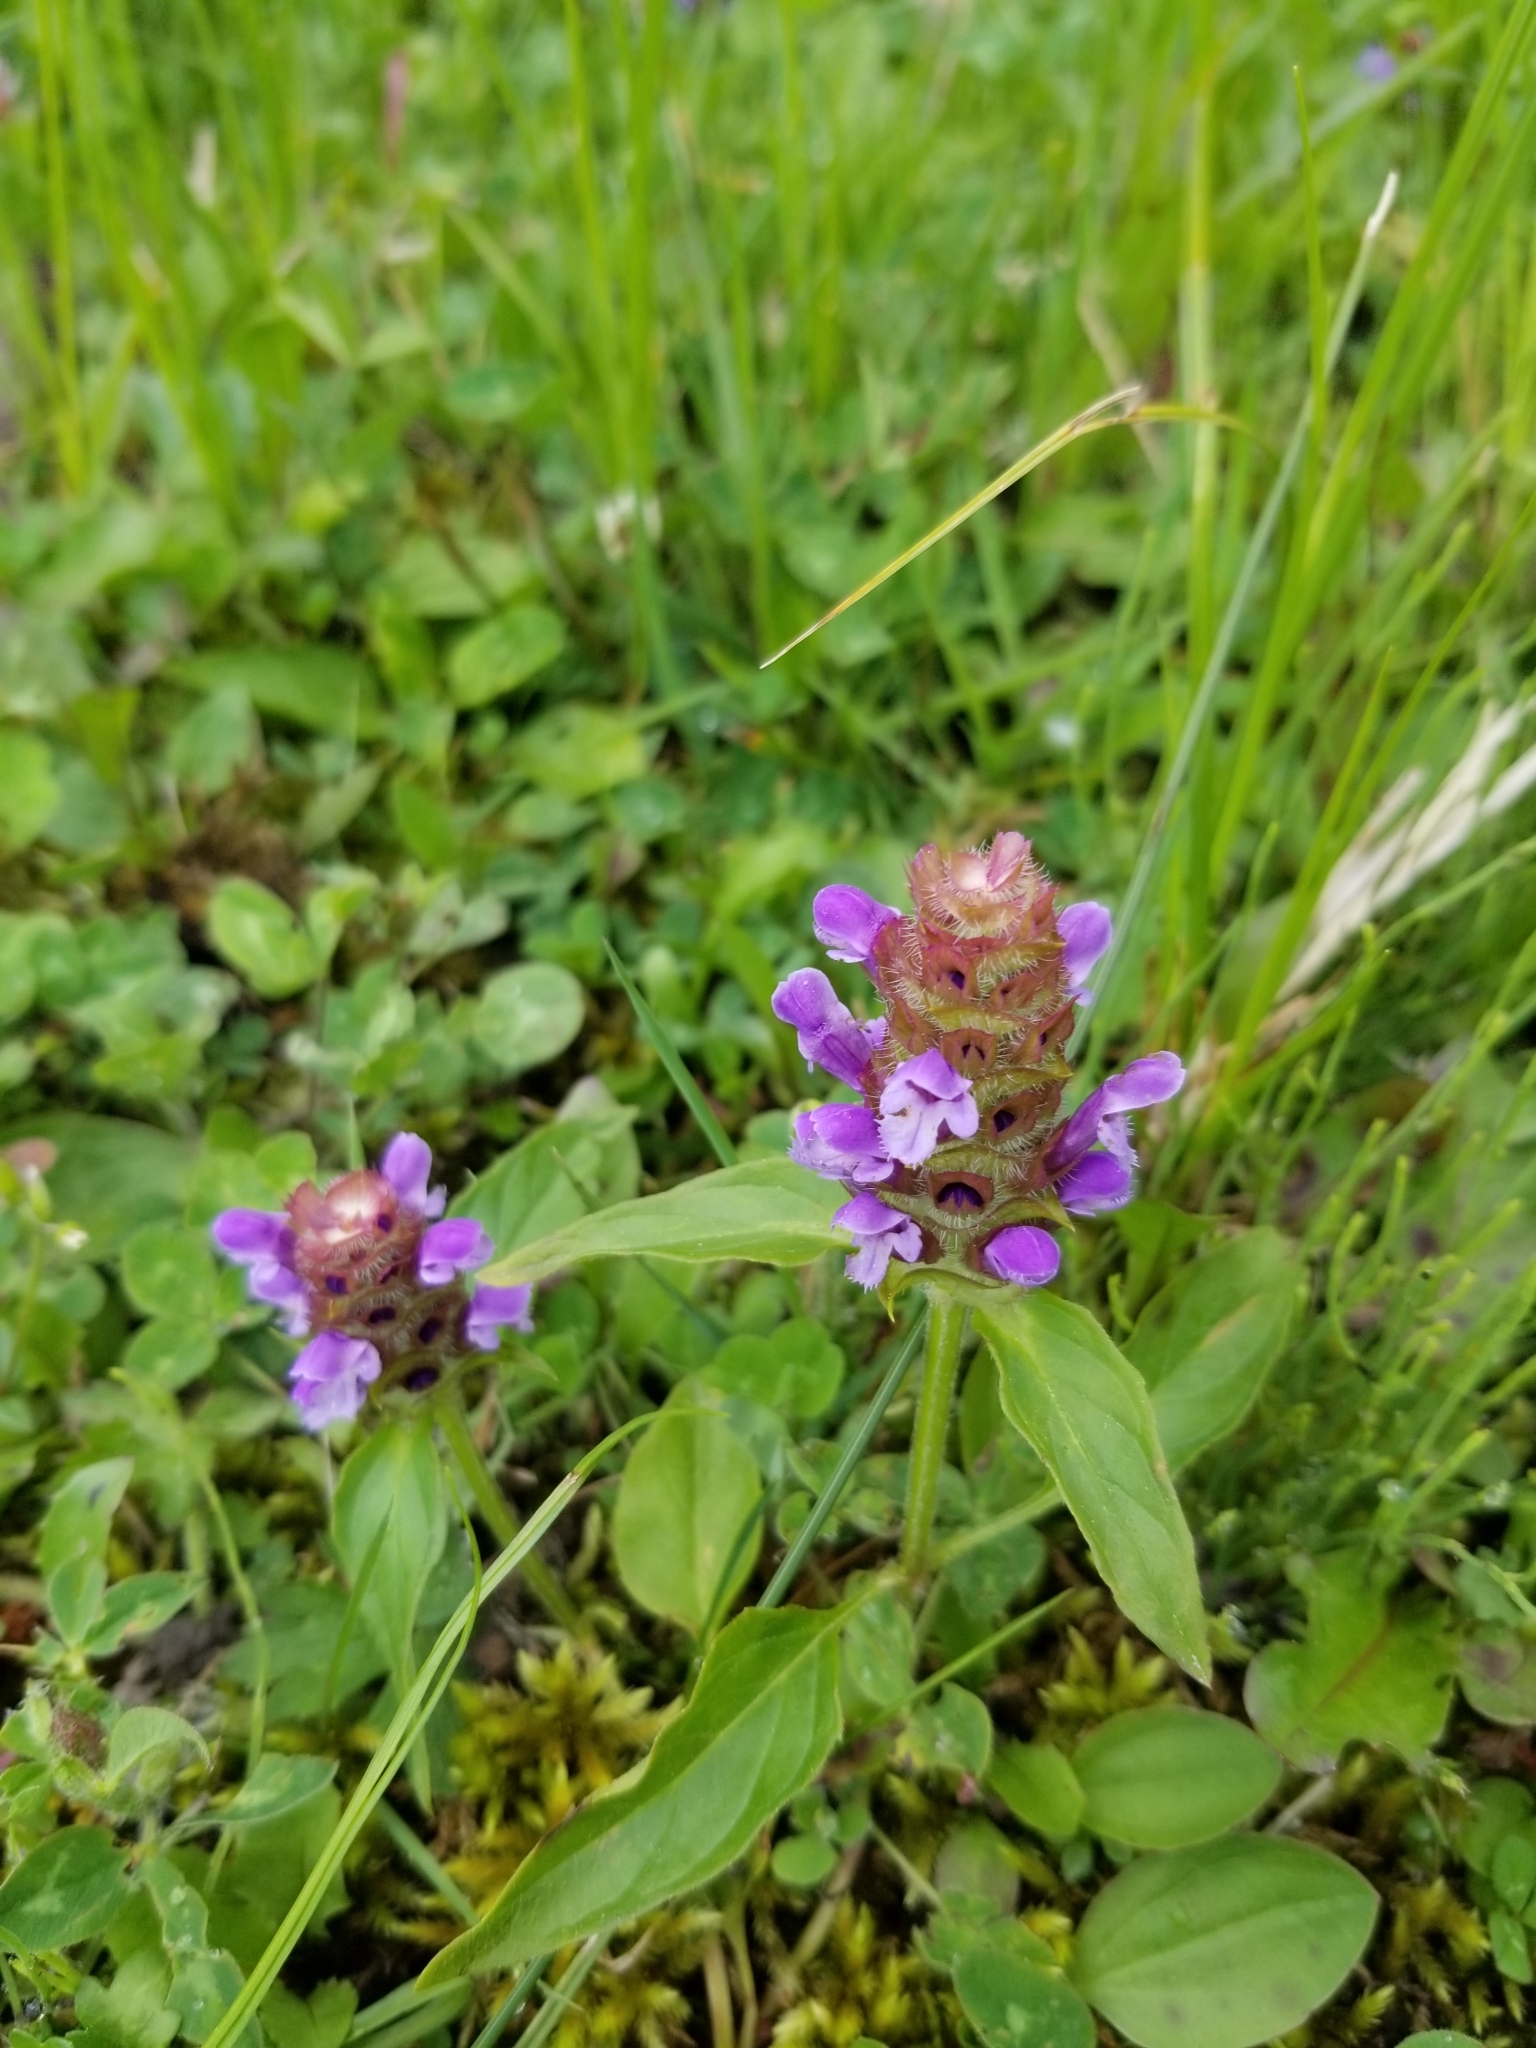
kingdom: Plantae
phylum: Tracheophyta
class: Magnoliopsida
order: Lamiales
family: Lamiaceae
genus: Prunella
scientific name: Prunella vulgaris
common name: Heal-all
